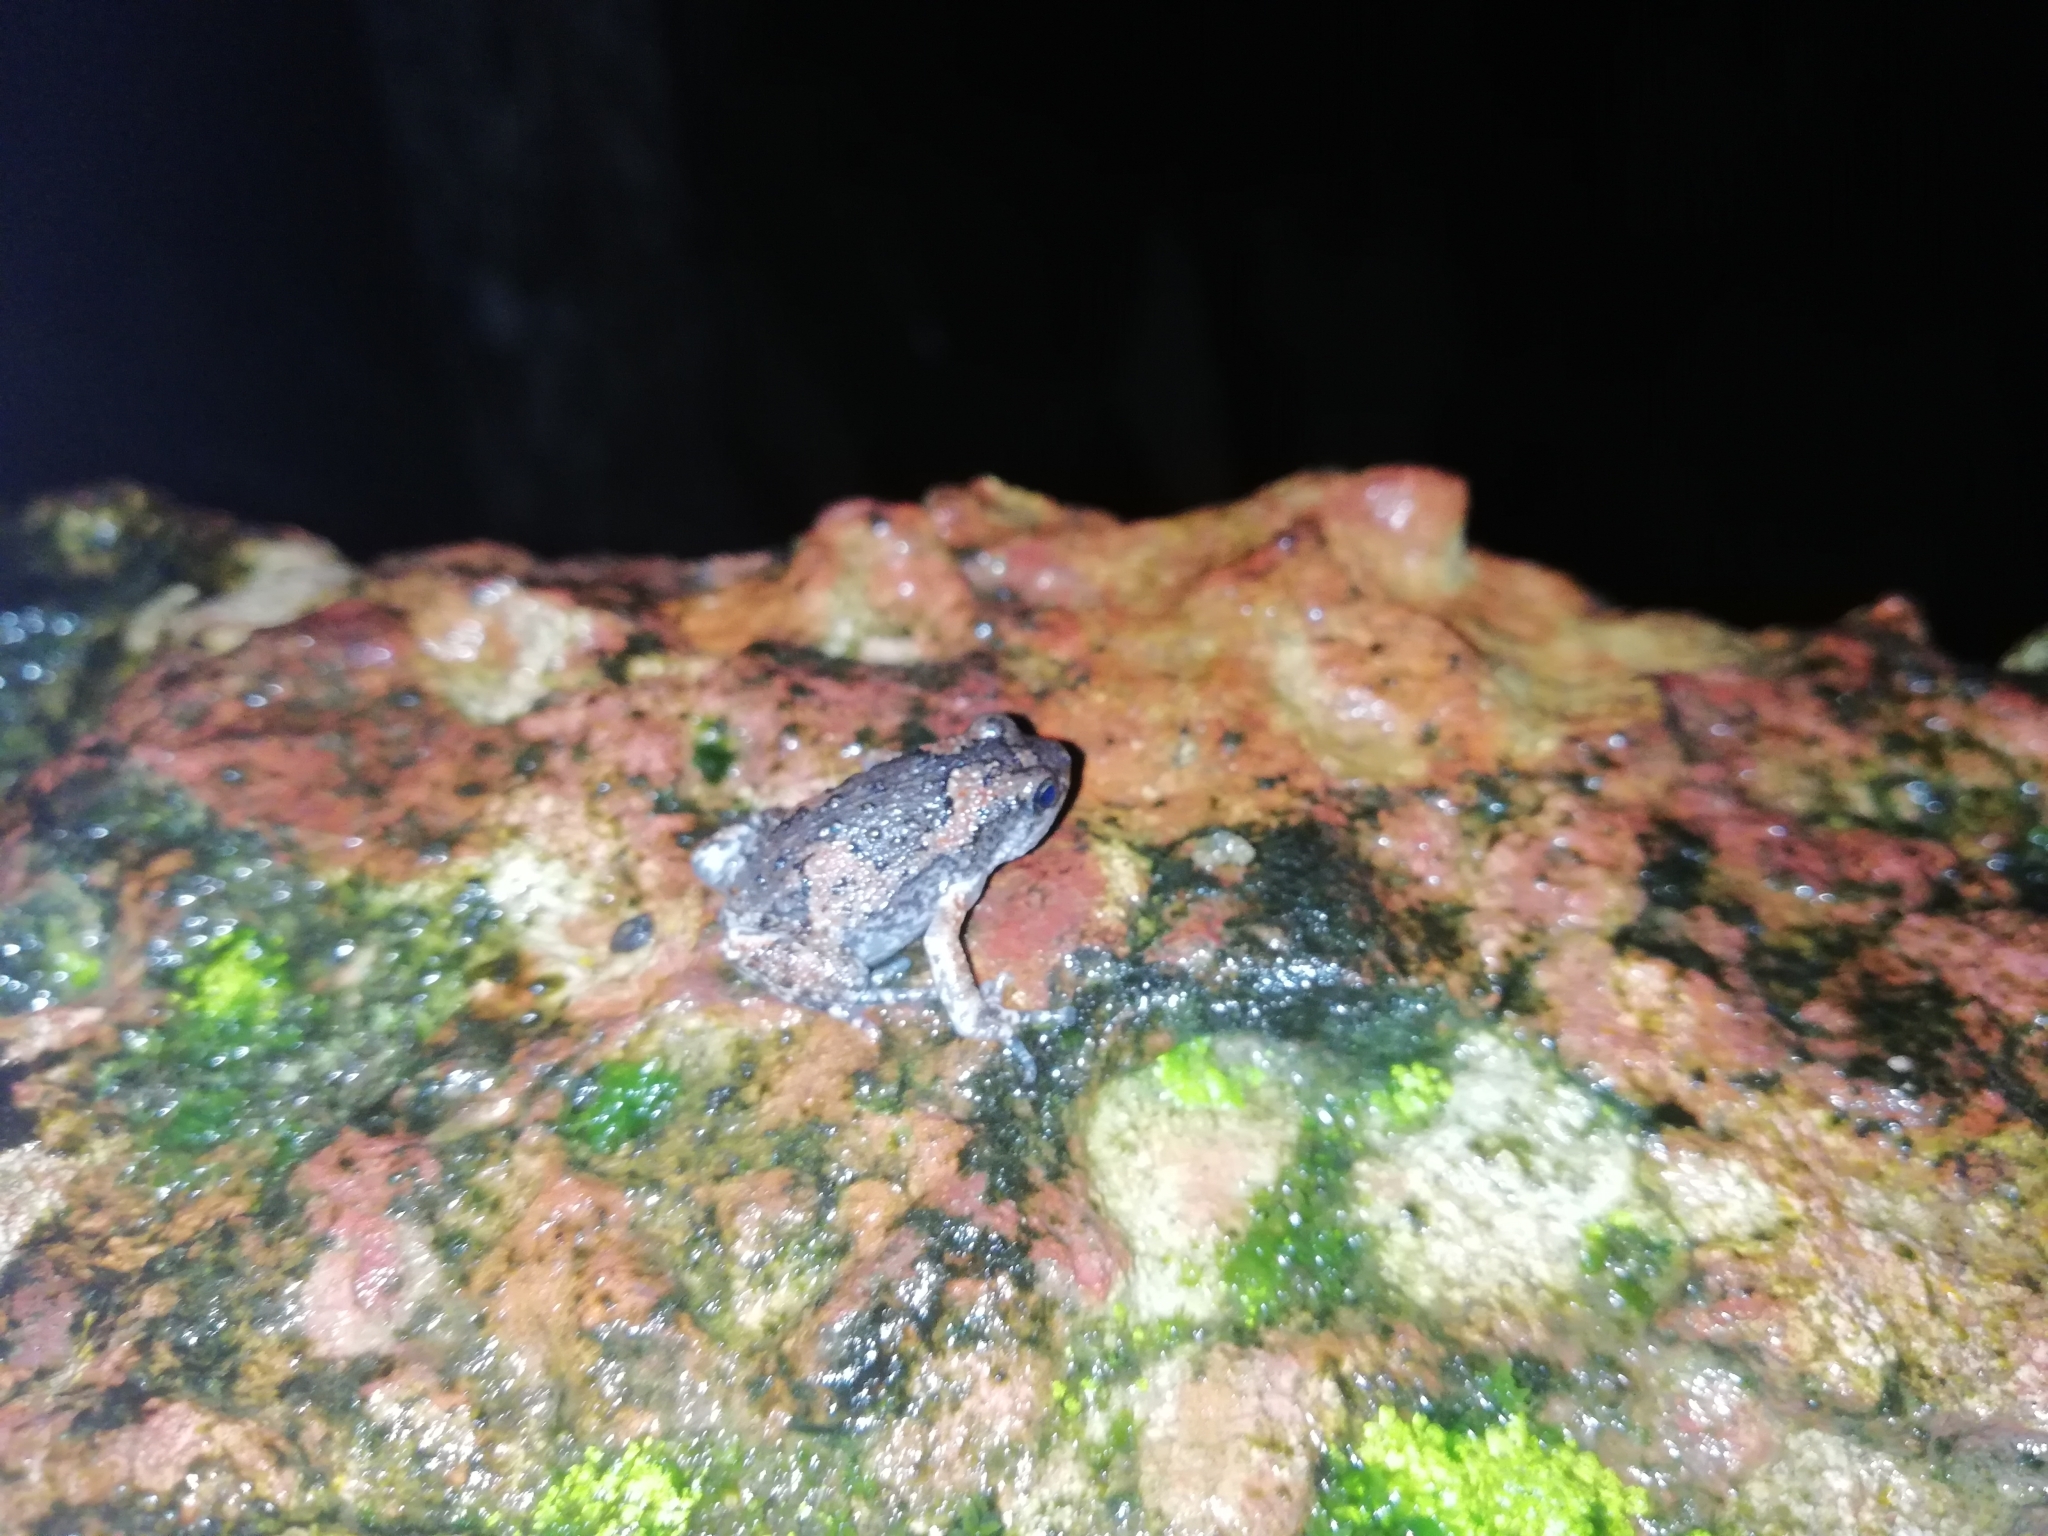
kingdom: Animalia
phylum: Chordata
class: Amphibia
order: Anura
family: Microhylidae
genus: Uperodon
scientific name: Uperodon taprobanicus
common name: Ceylon kaloula
